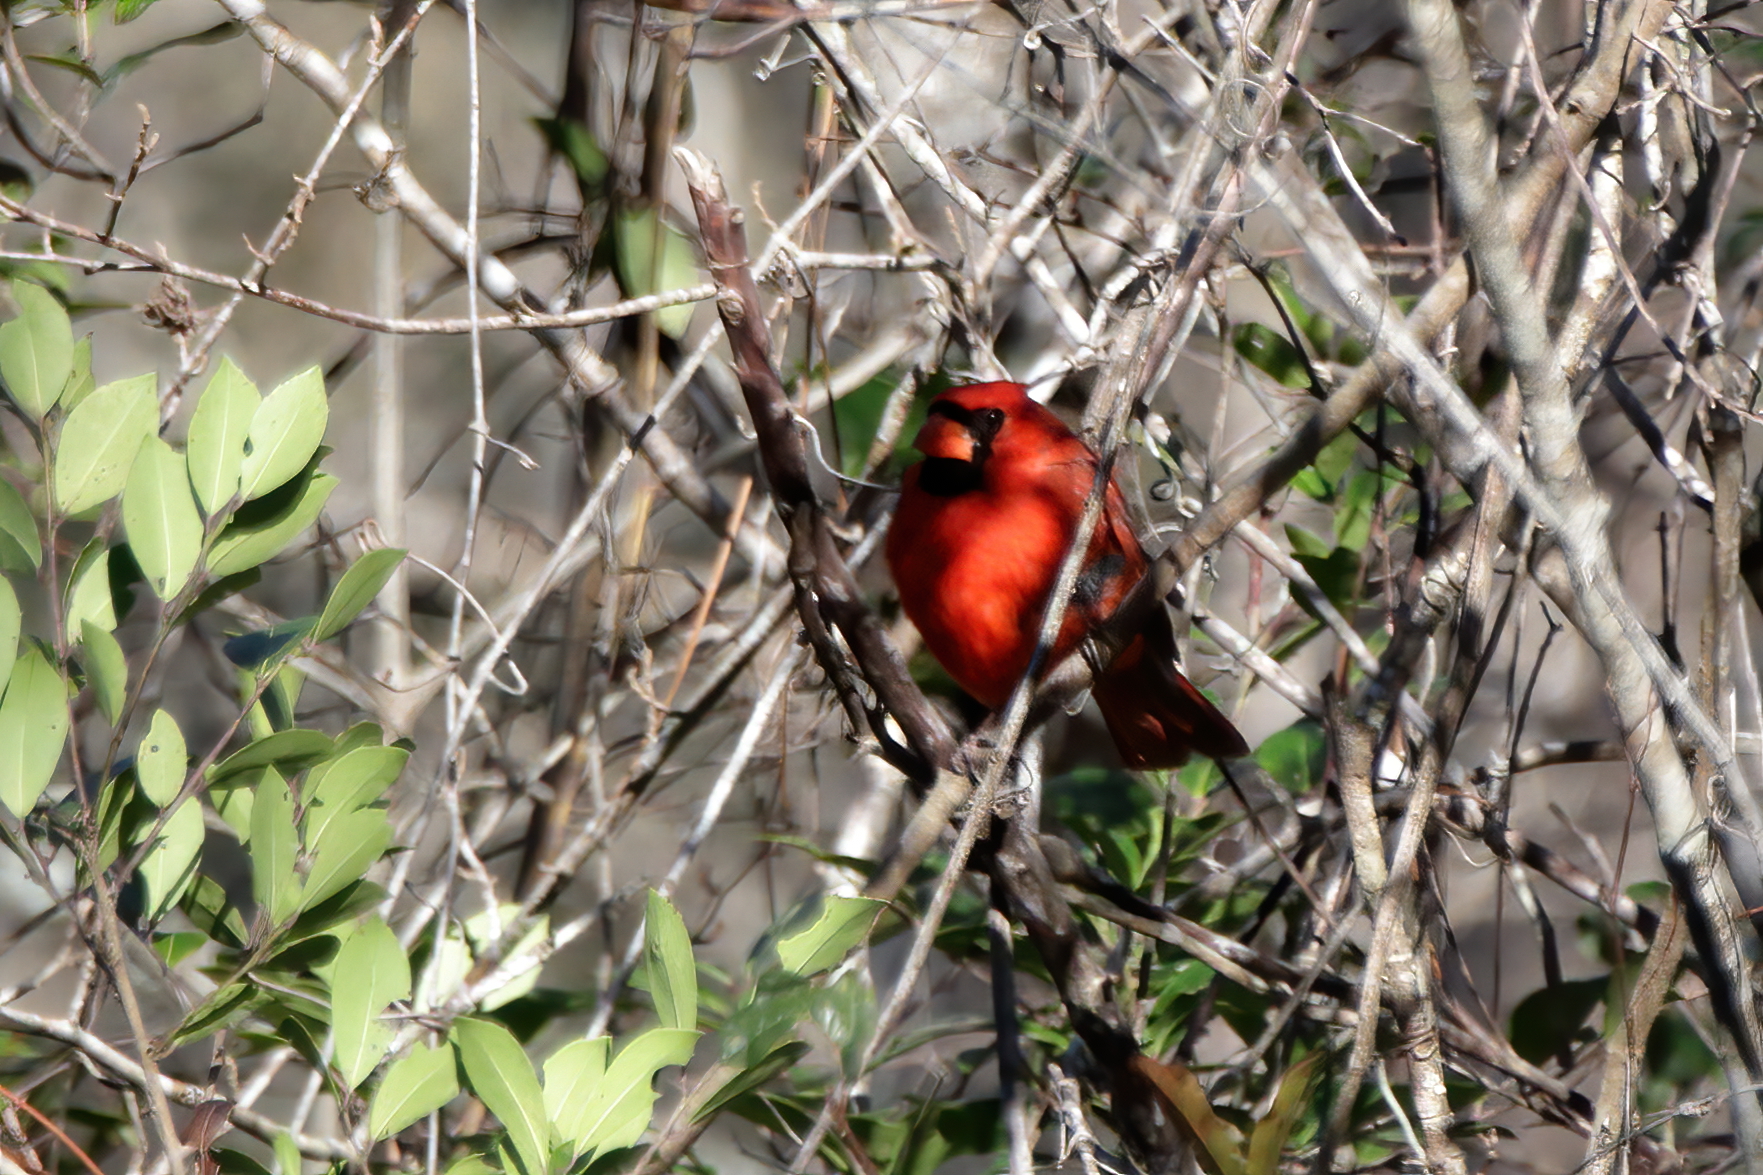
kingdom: Animalia
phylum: Chordata
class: Aves
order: Passeriformes
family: Cardinalidae
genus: Cardinalis
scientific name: Cardinalis cardinalis
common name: Northern cardinal
